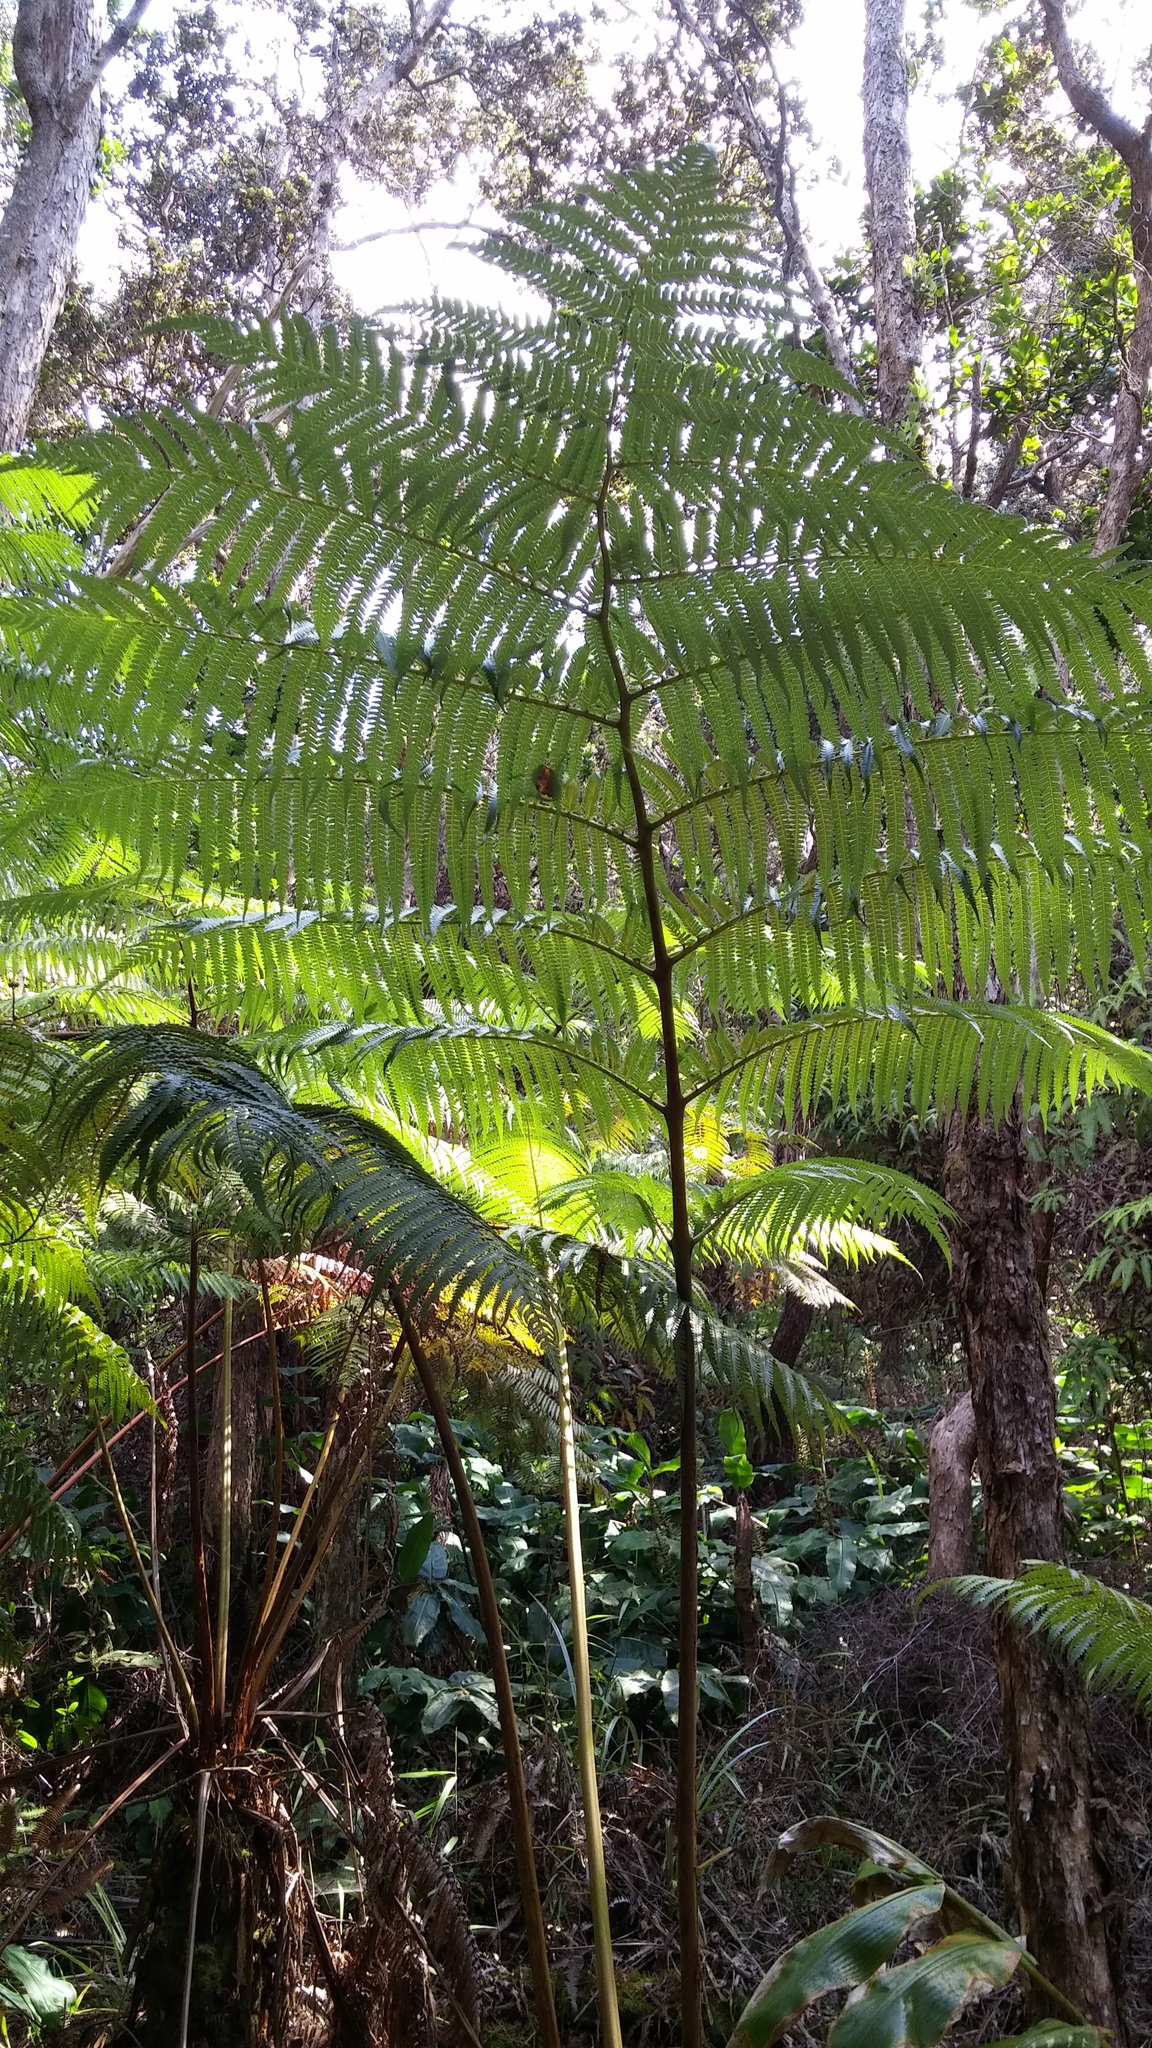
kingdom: Plantae
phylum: Tracheophyta
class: Polypodiopsida
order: Cyatheales
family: Cibotiaceae
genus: Cibotium
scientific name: Cibotium glaucum
